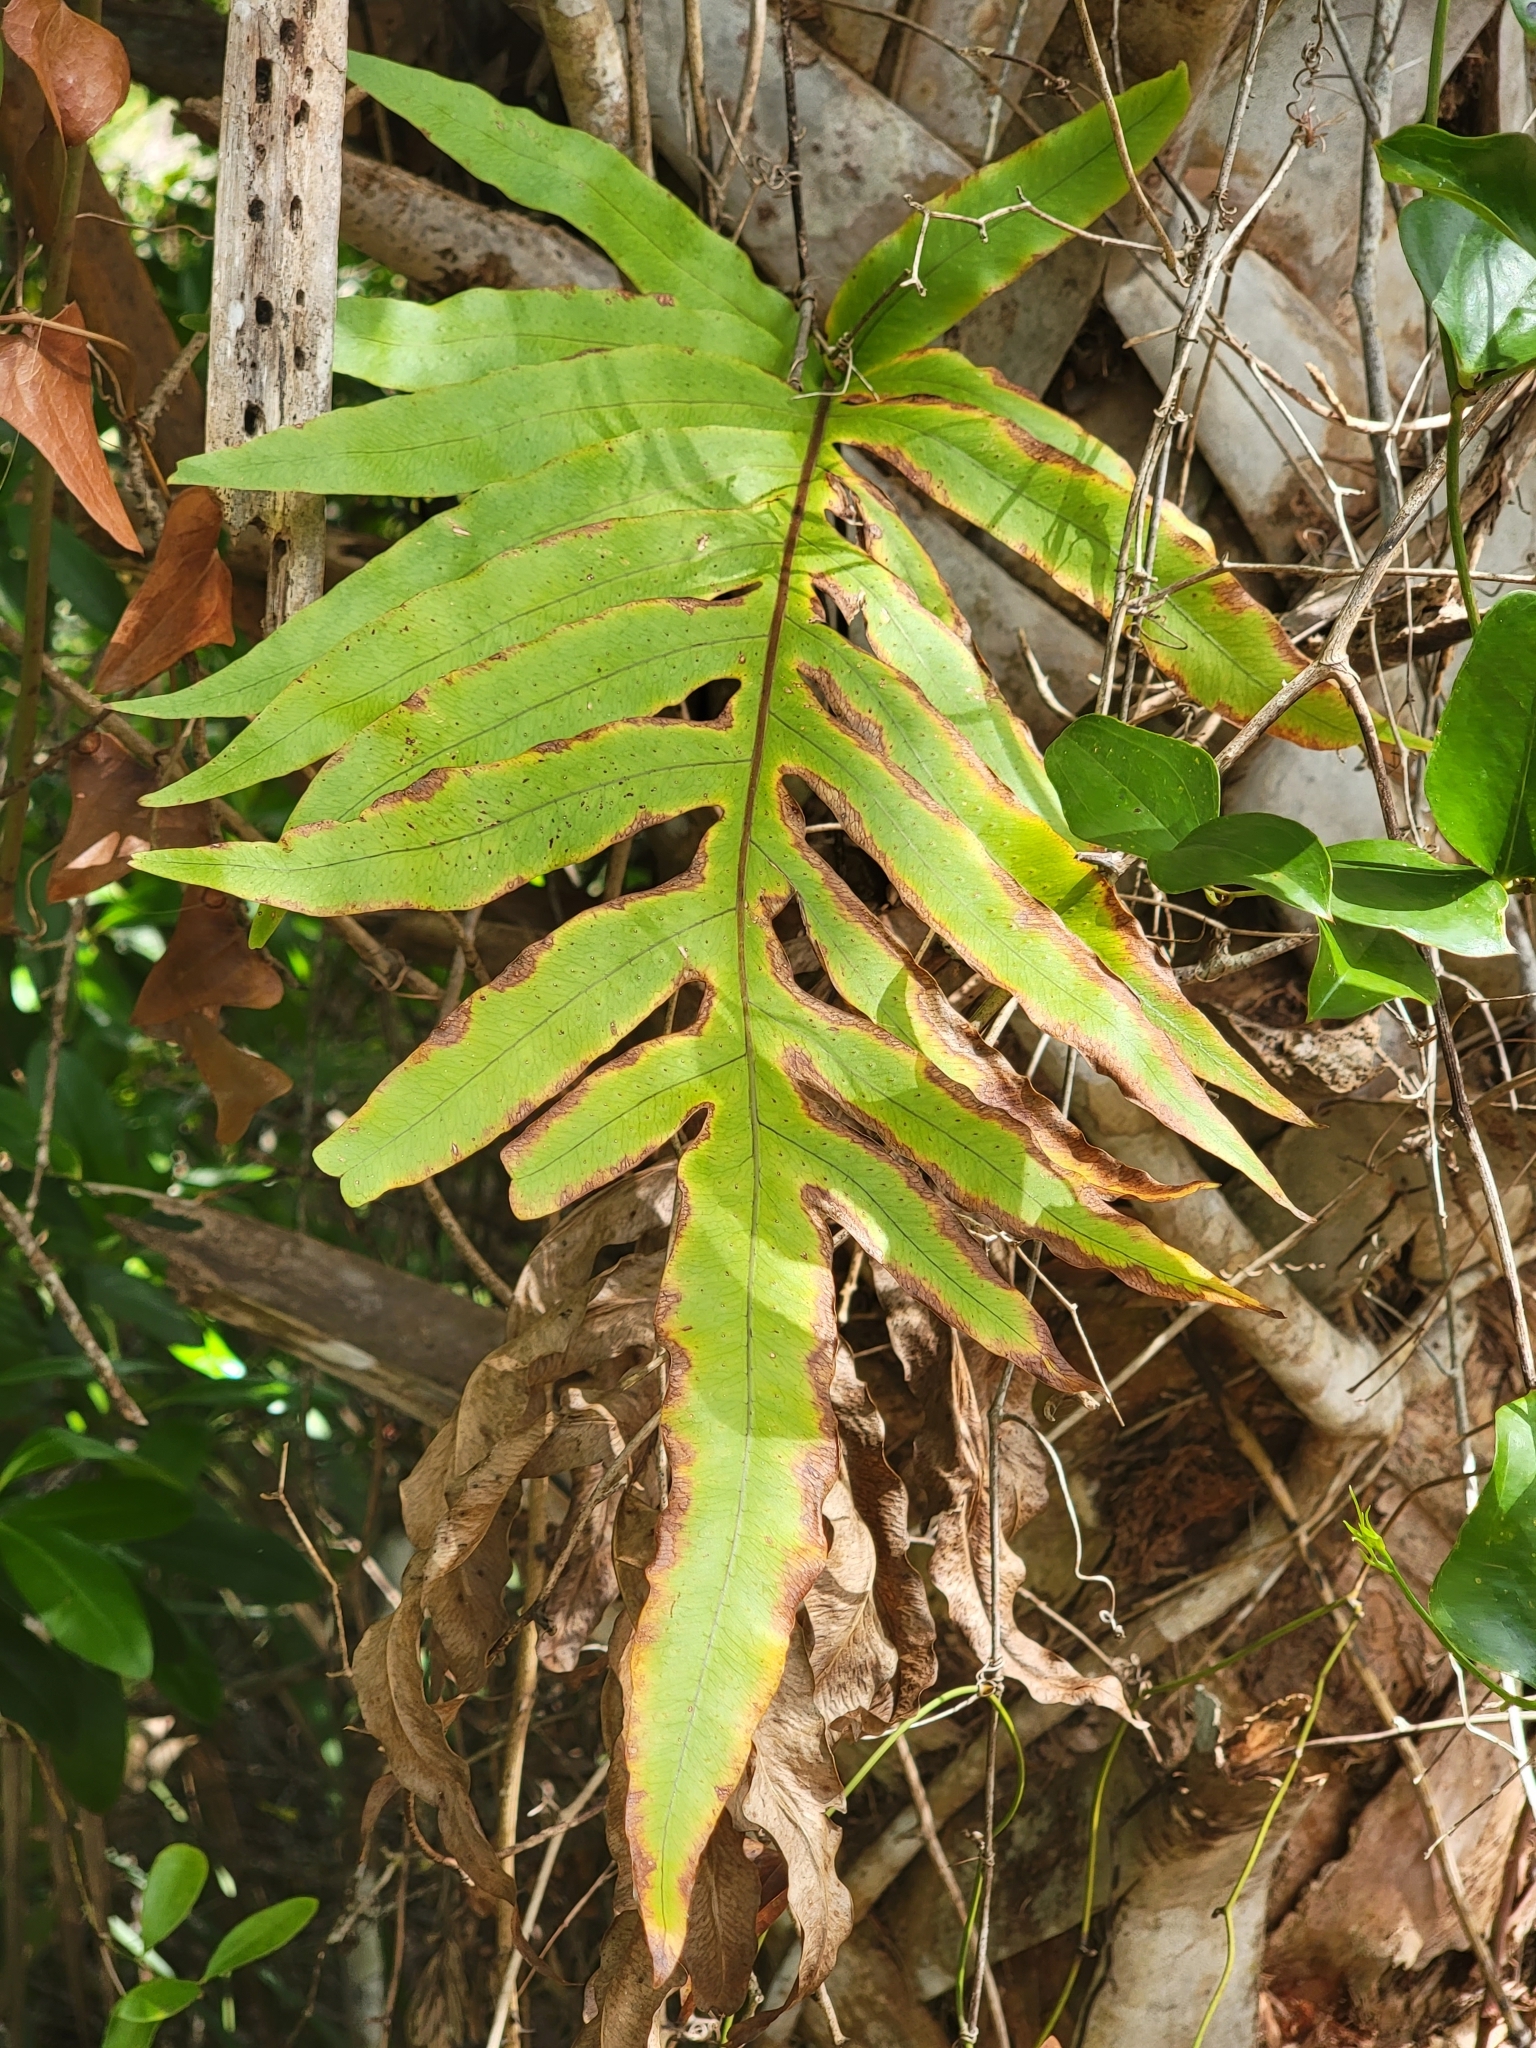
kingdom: Plantae
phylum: Tracheophyta
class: Polypodiopsida
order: Polypodiales
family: Polypodiaceae
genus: Phlebodium
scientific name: Phlebodium aureum
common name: Gold-foot fern
